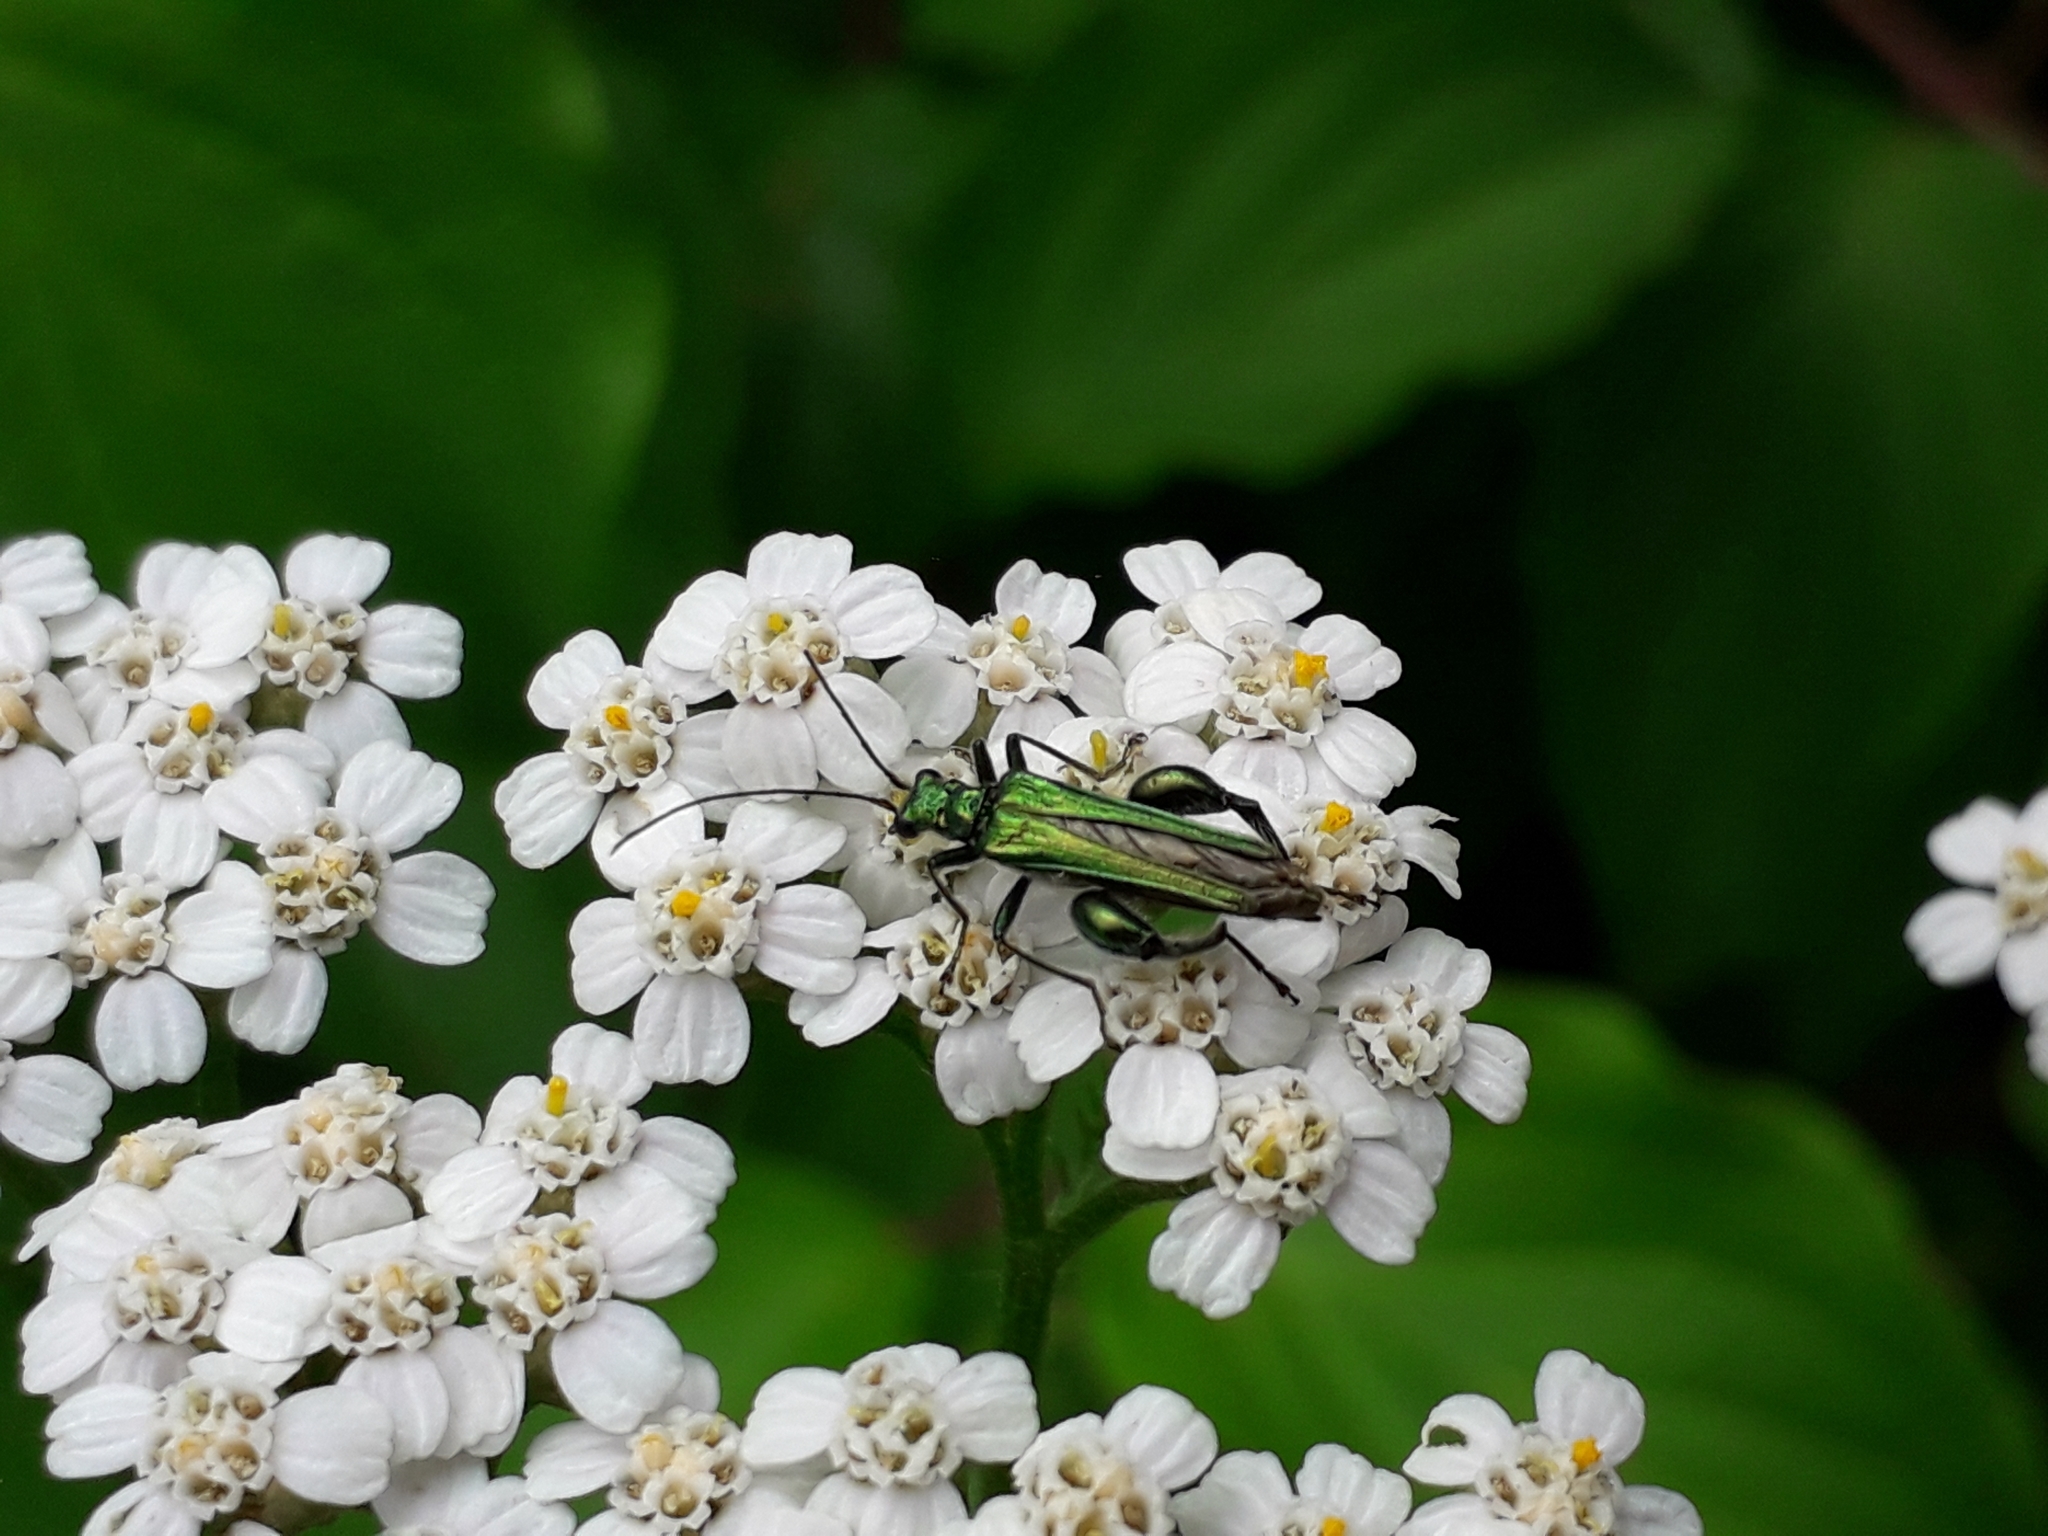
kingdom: Animalia
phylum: Arthropoda
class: Insecta
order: Coleoptera
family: Oedemeridae
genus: Oedemera
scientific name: Oedemera nobilis
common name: Swollen-thighed beetle
